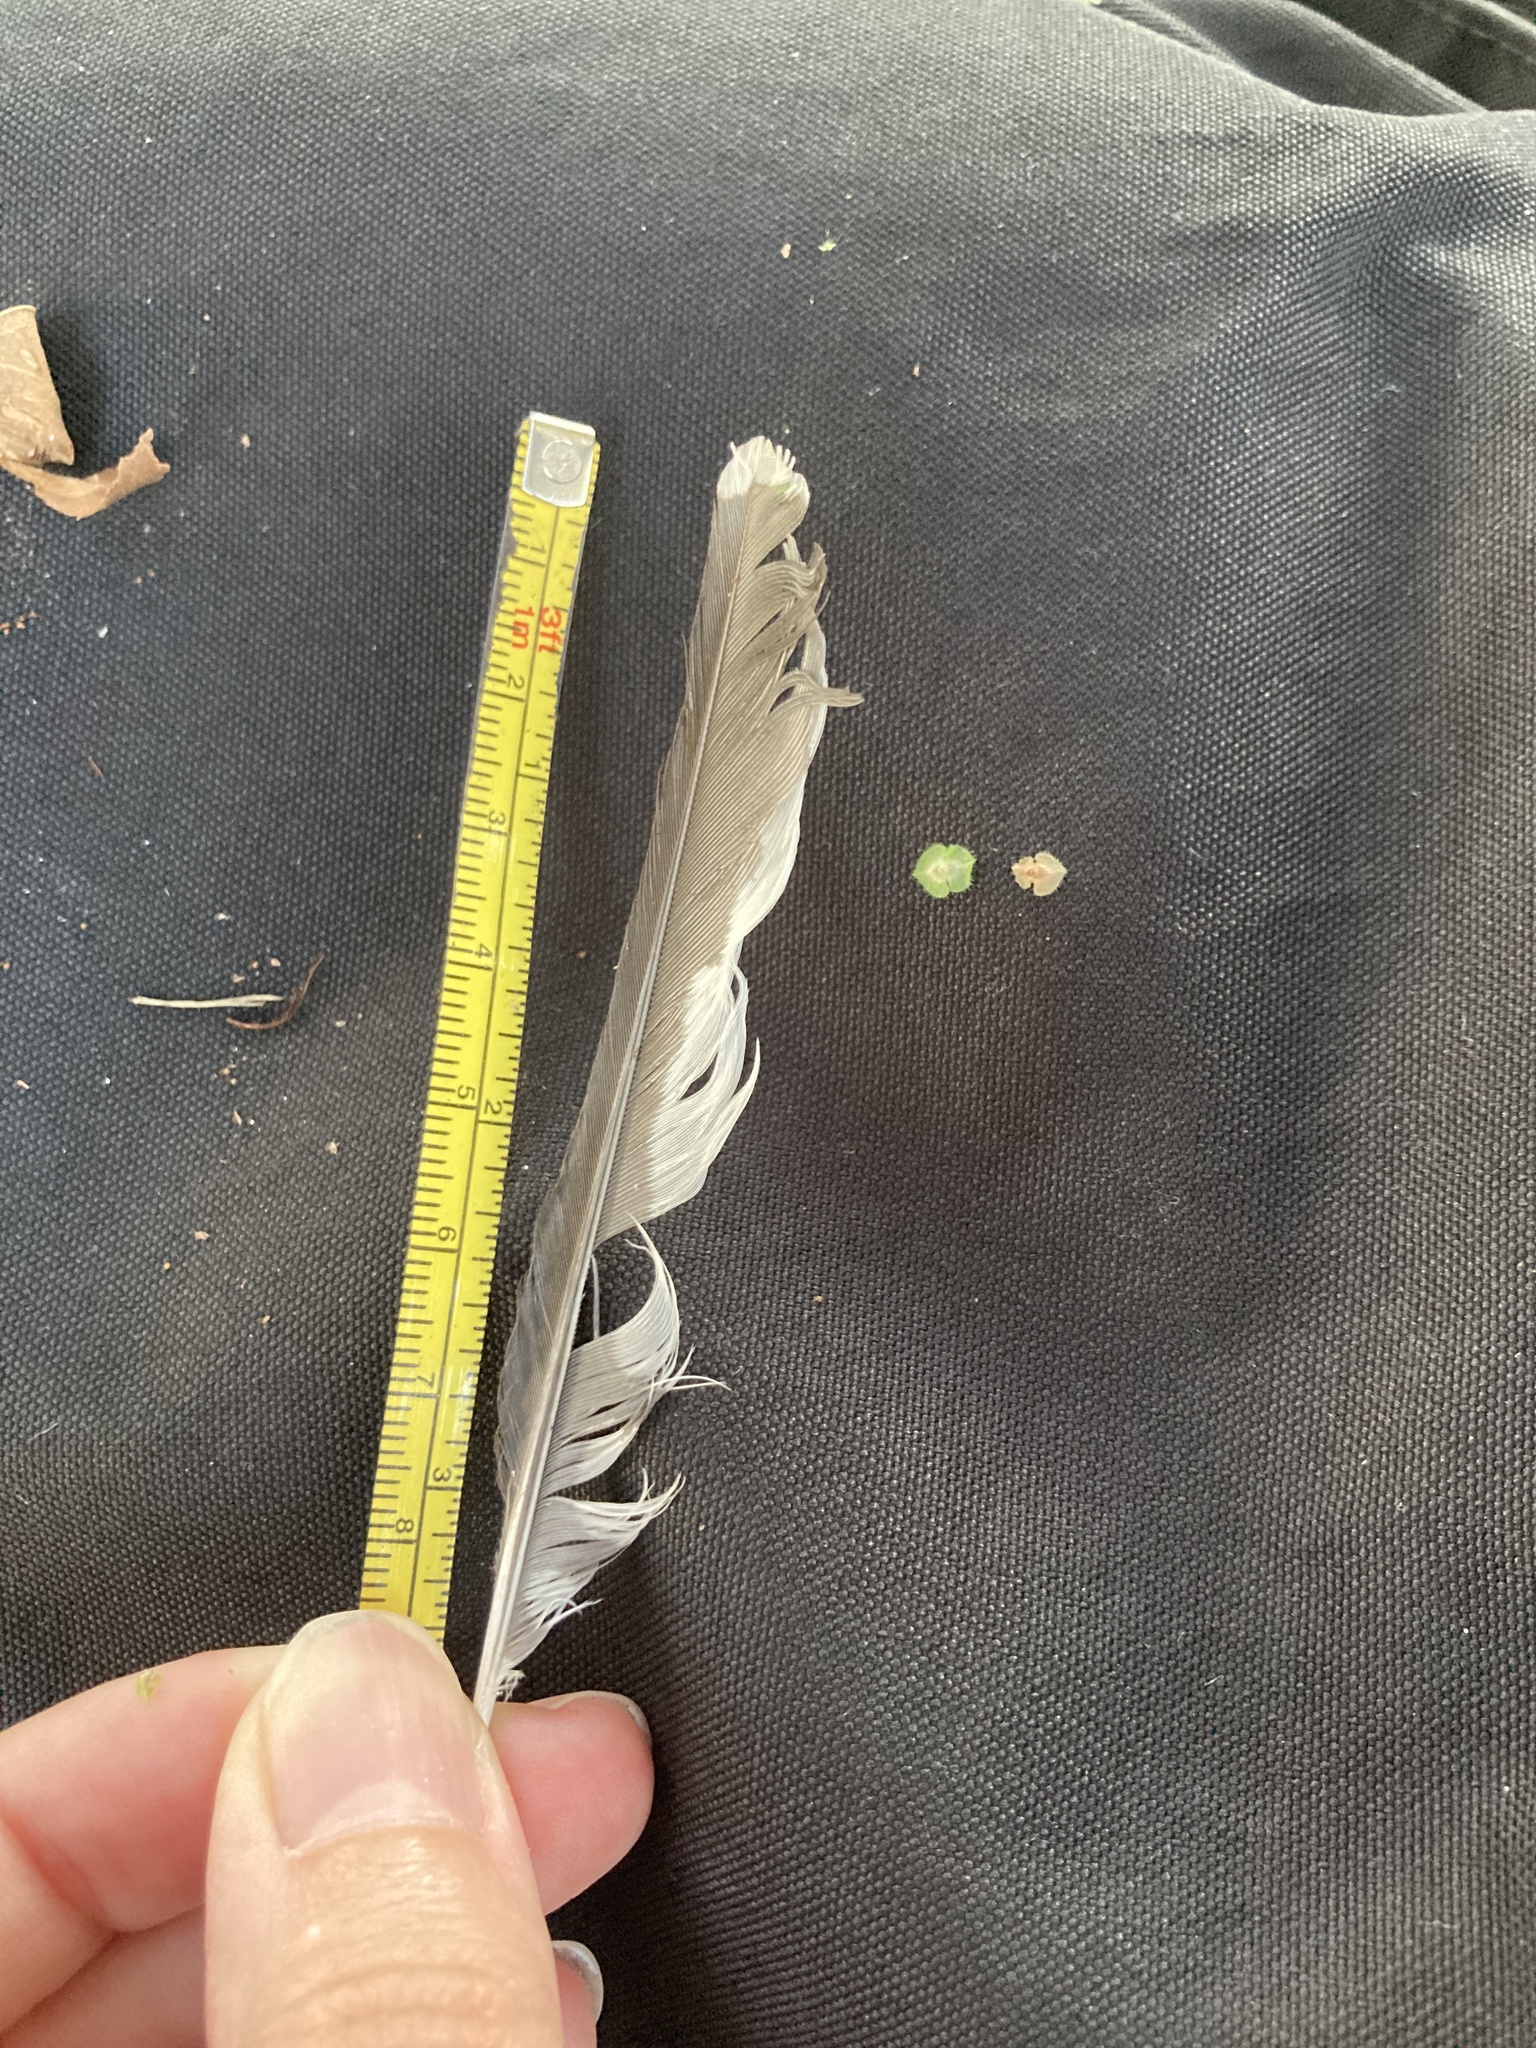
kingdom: Animalia
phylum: Chordata
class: Aves
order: Piciformes
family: Picidae
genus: Melanerpes
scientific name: Melanerpes carolinus
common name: Red-bellied woodpecker
